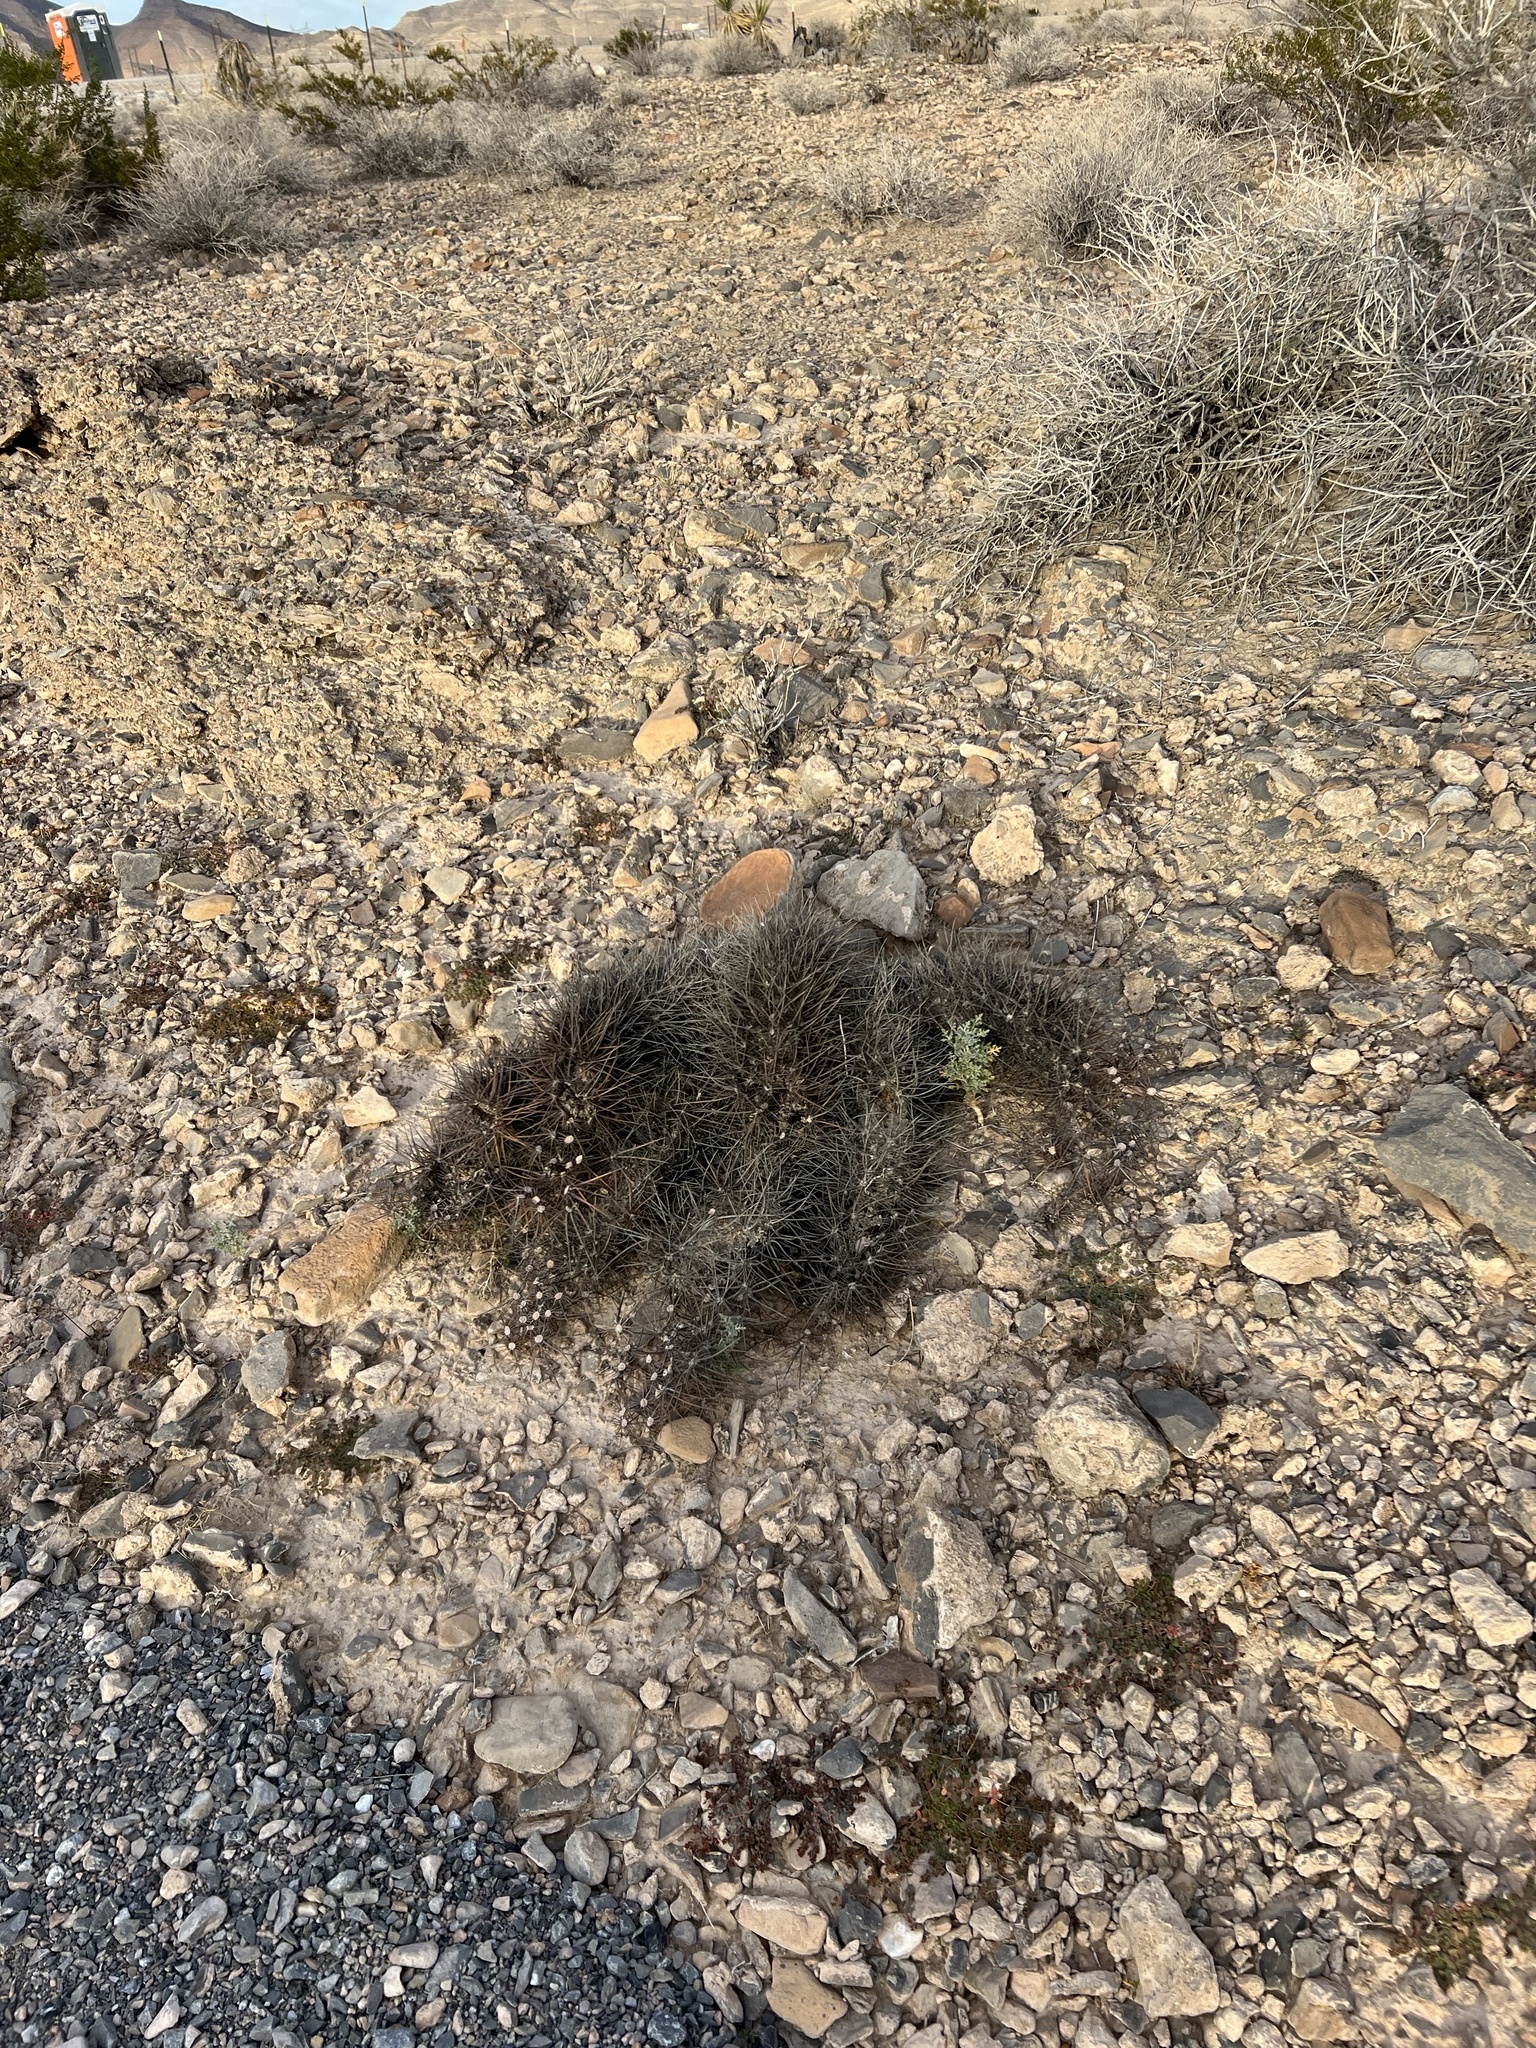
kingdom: Plantae
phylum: Tracheophyta
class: Magnoliopsida
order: Caryophyllales
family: Cactaceae
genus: Echinocereus
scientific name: Echinocereus engelmannii
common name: Engelmann's hedgehog cactus
